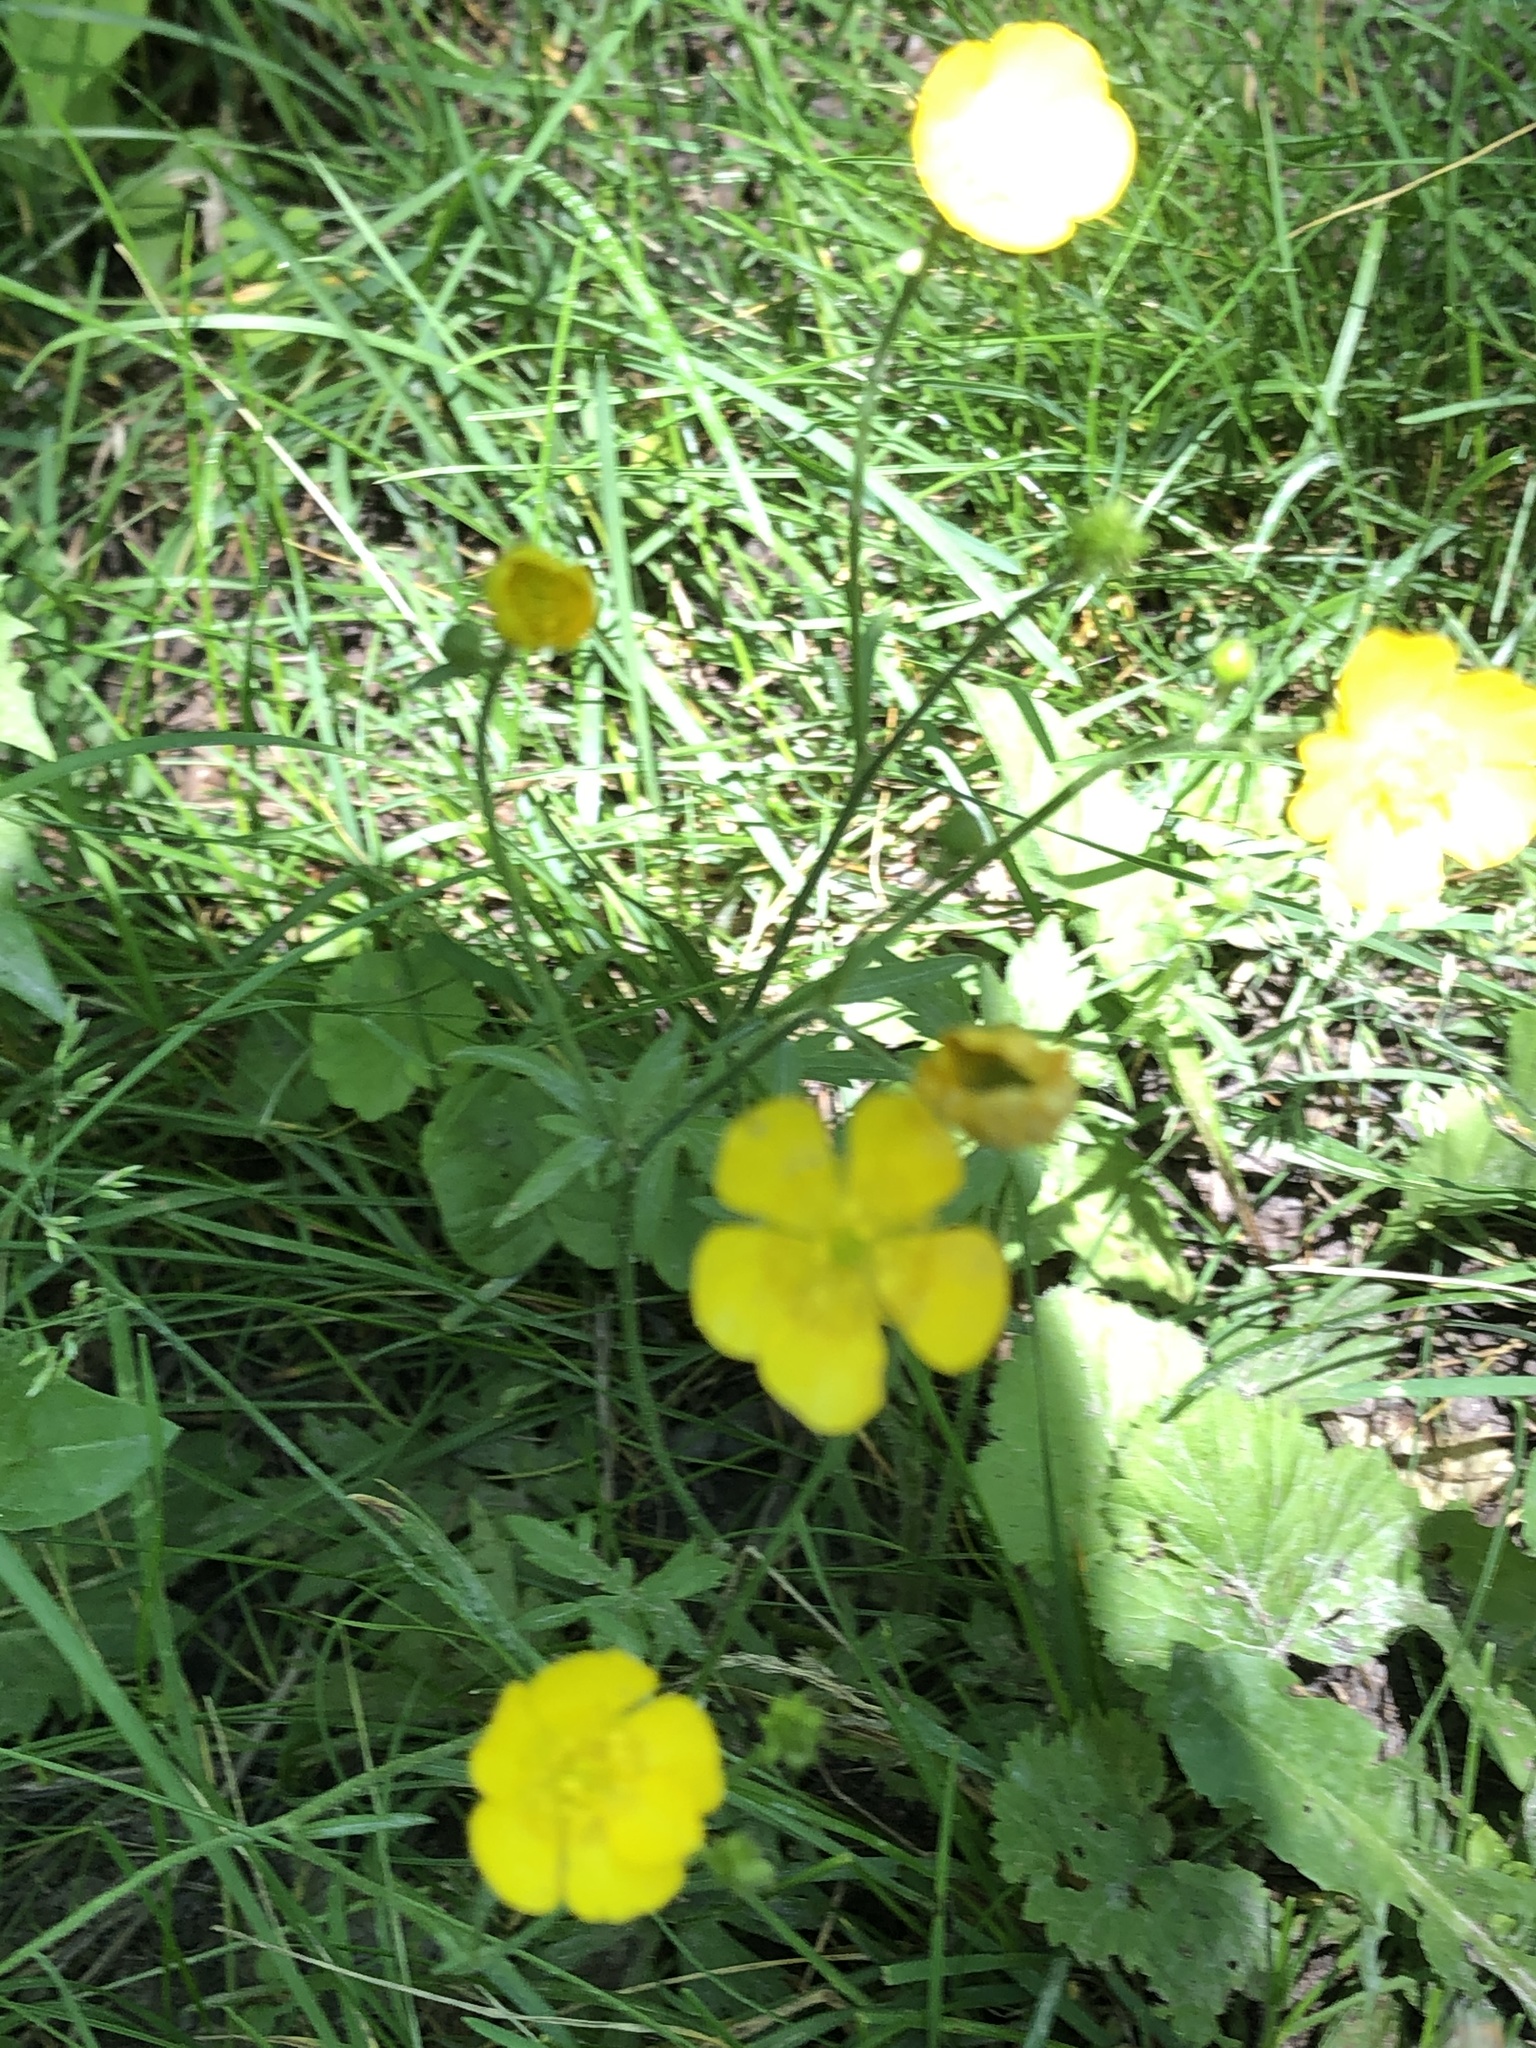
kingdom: Plantae
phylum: Tracheophyta
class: Magnoliopsida
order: Ranunculales
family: Ranunculaceae
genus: Ranunculus
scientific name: Ranunculus acris
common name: Meadow buttercup
